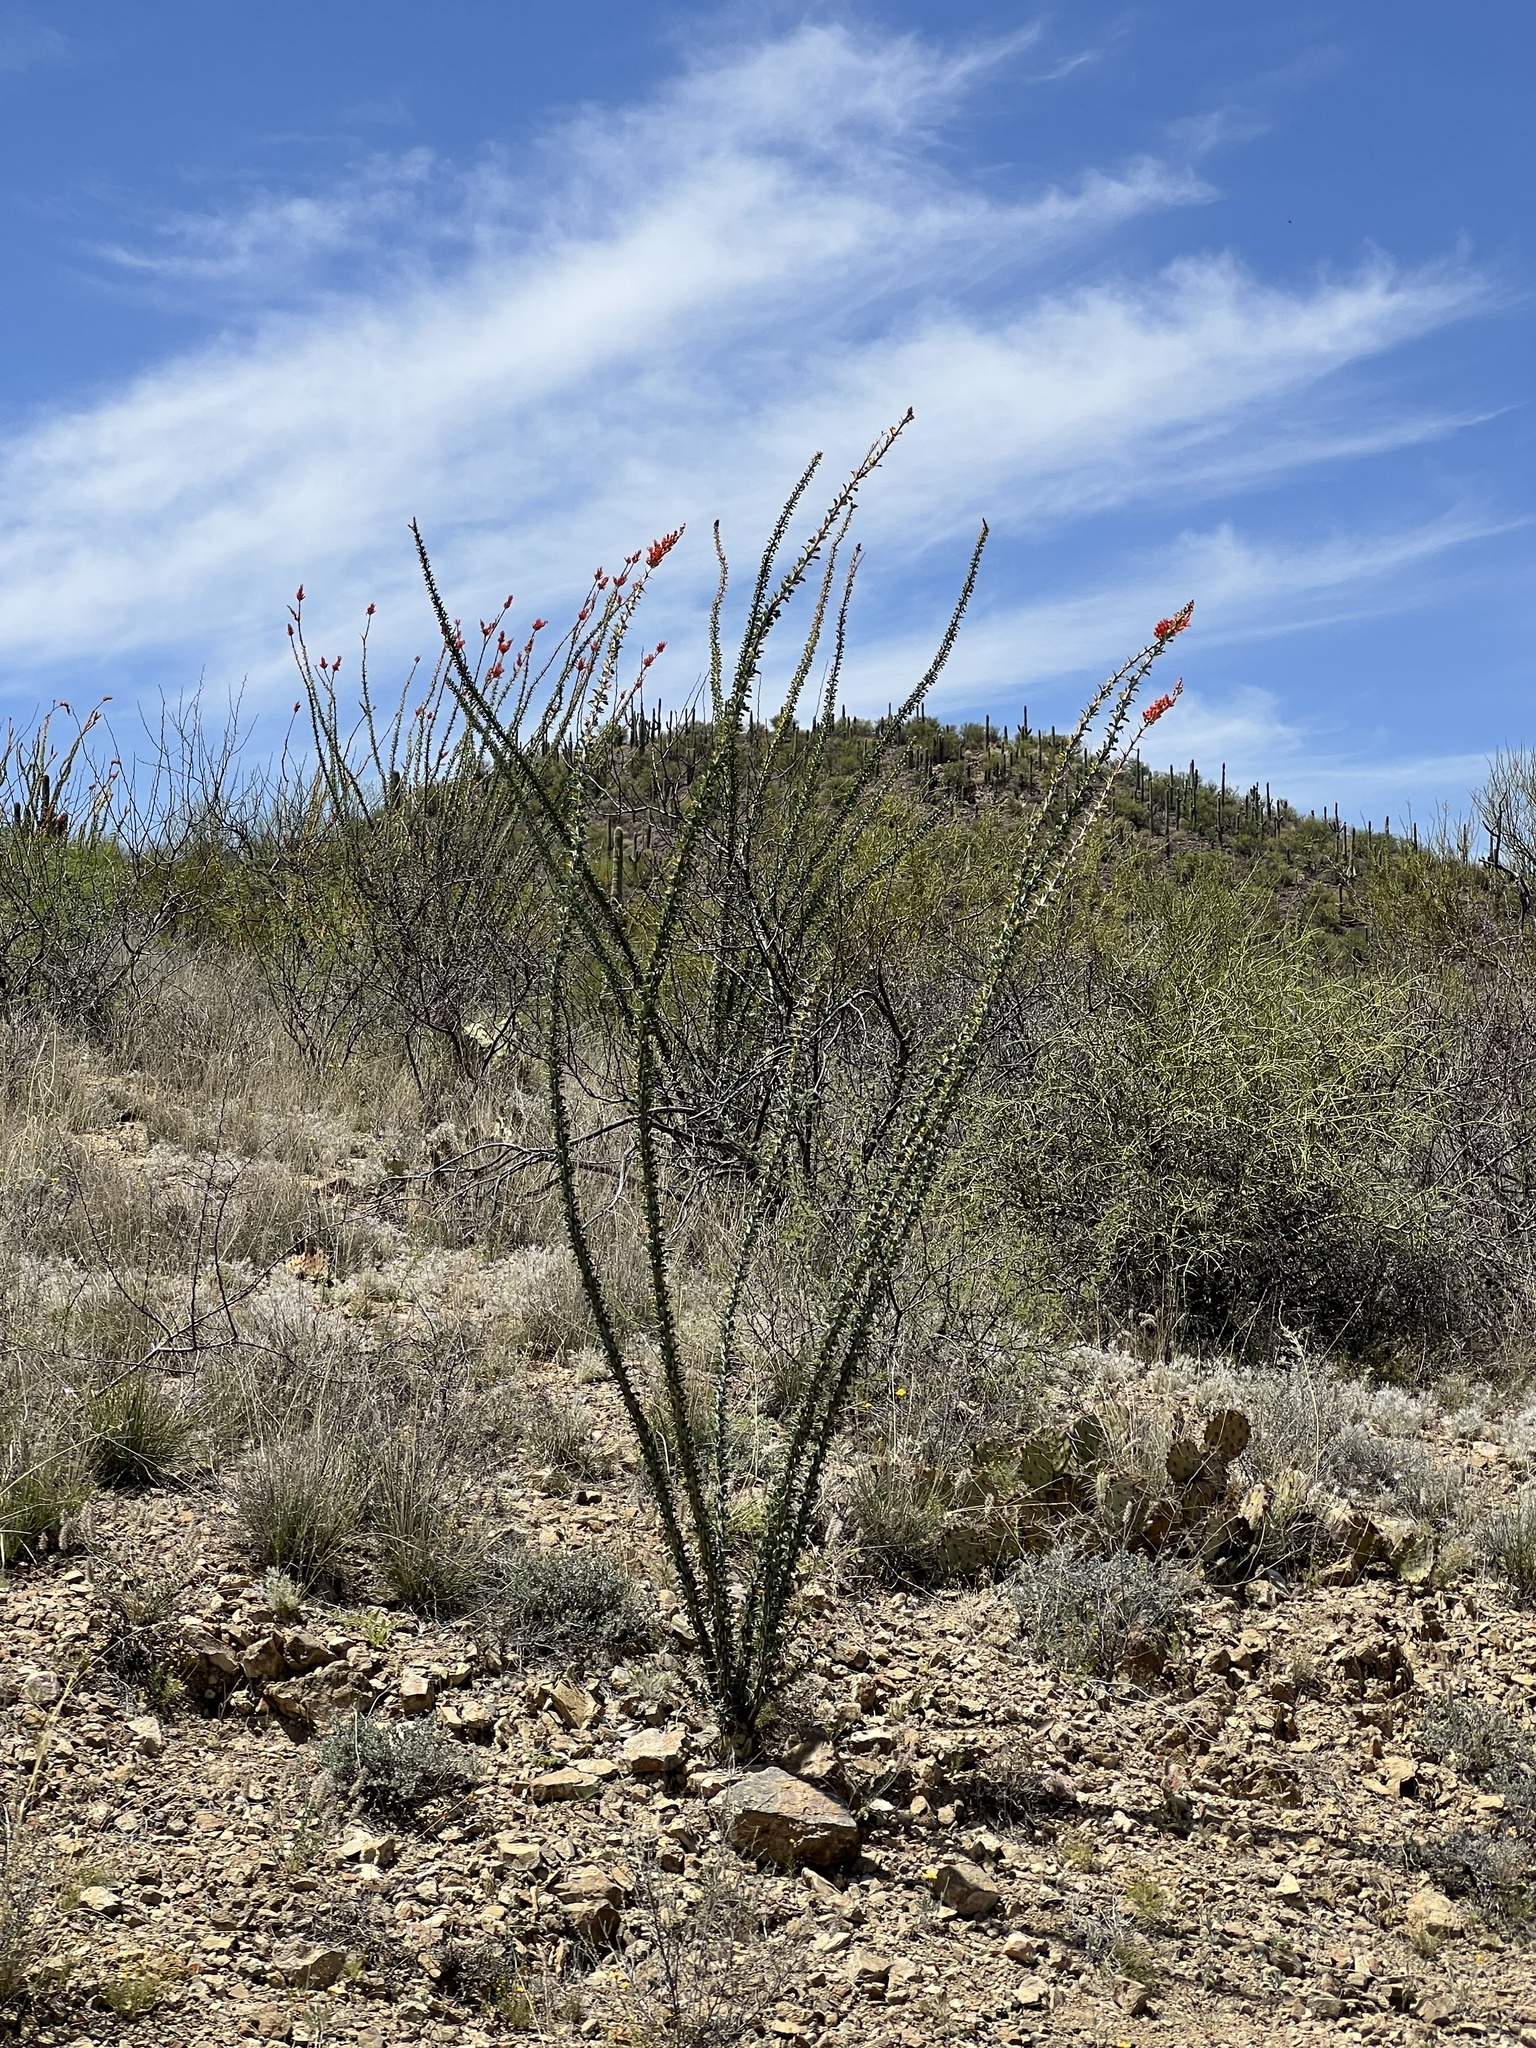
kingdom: Plantae
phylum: Tracheophyta
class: Magnoliopsida
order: Ericales
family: Fouquieriaceae
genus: Fouquieria
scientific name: Fouquieria splendens
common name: Vine-cactus
